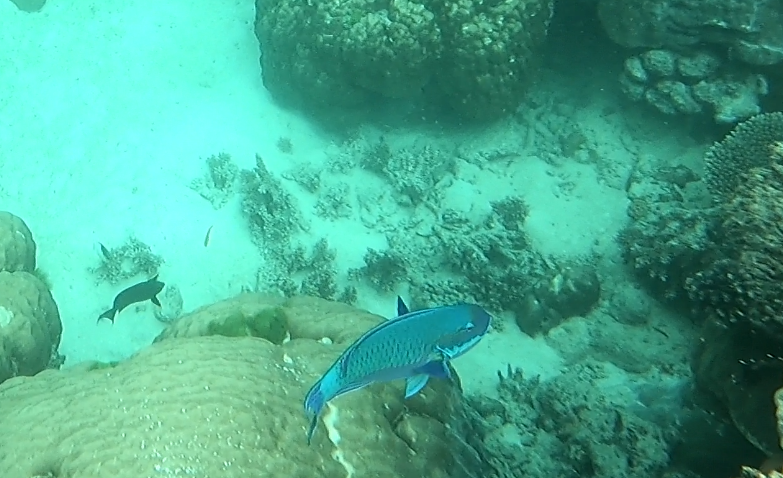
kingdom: Animalia
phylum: Chordata
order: Perciformes
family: Scaridae
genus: Chlorurus
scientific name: Chlorurus microrhinos
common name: Steephead parrotfish
